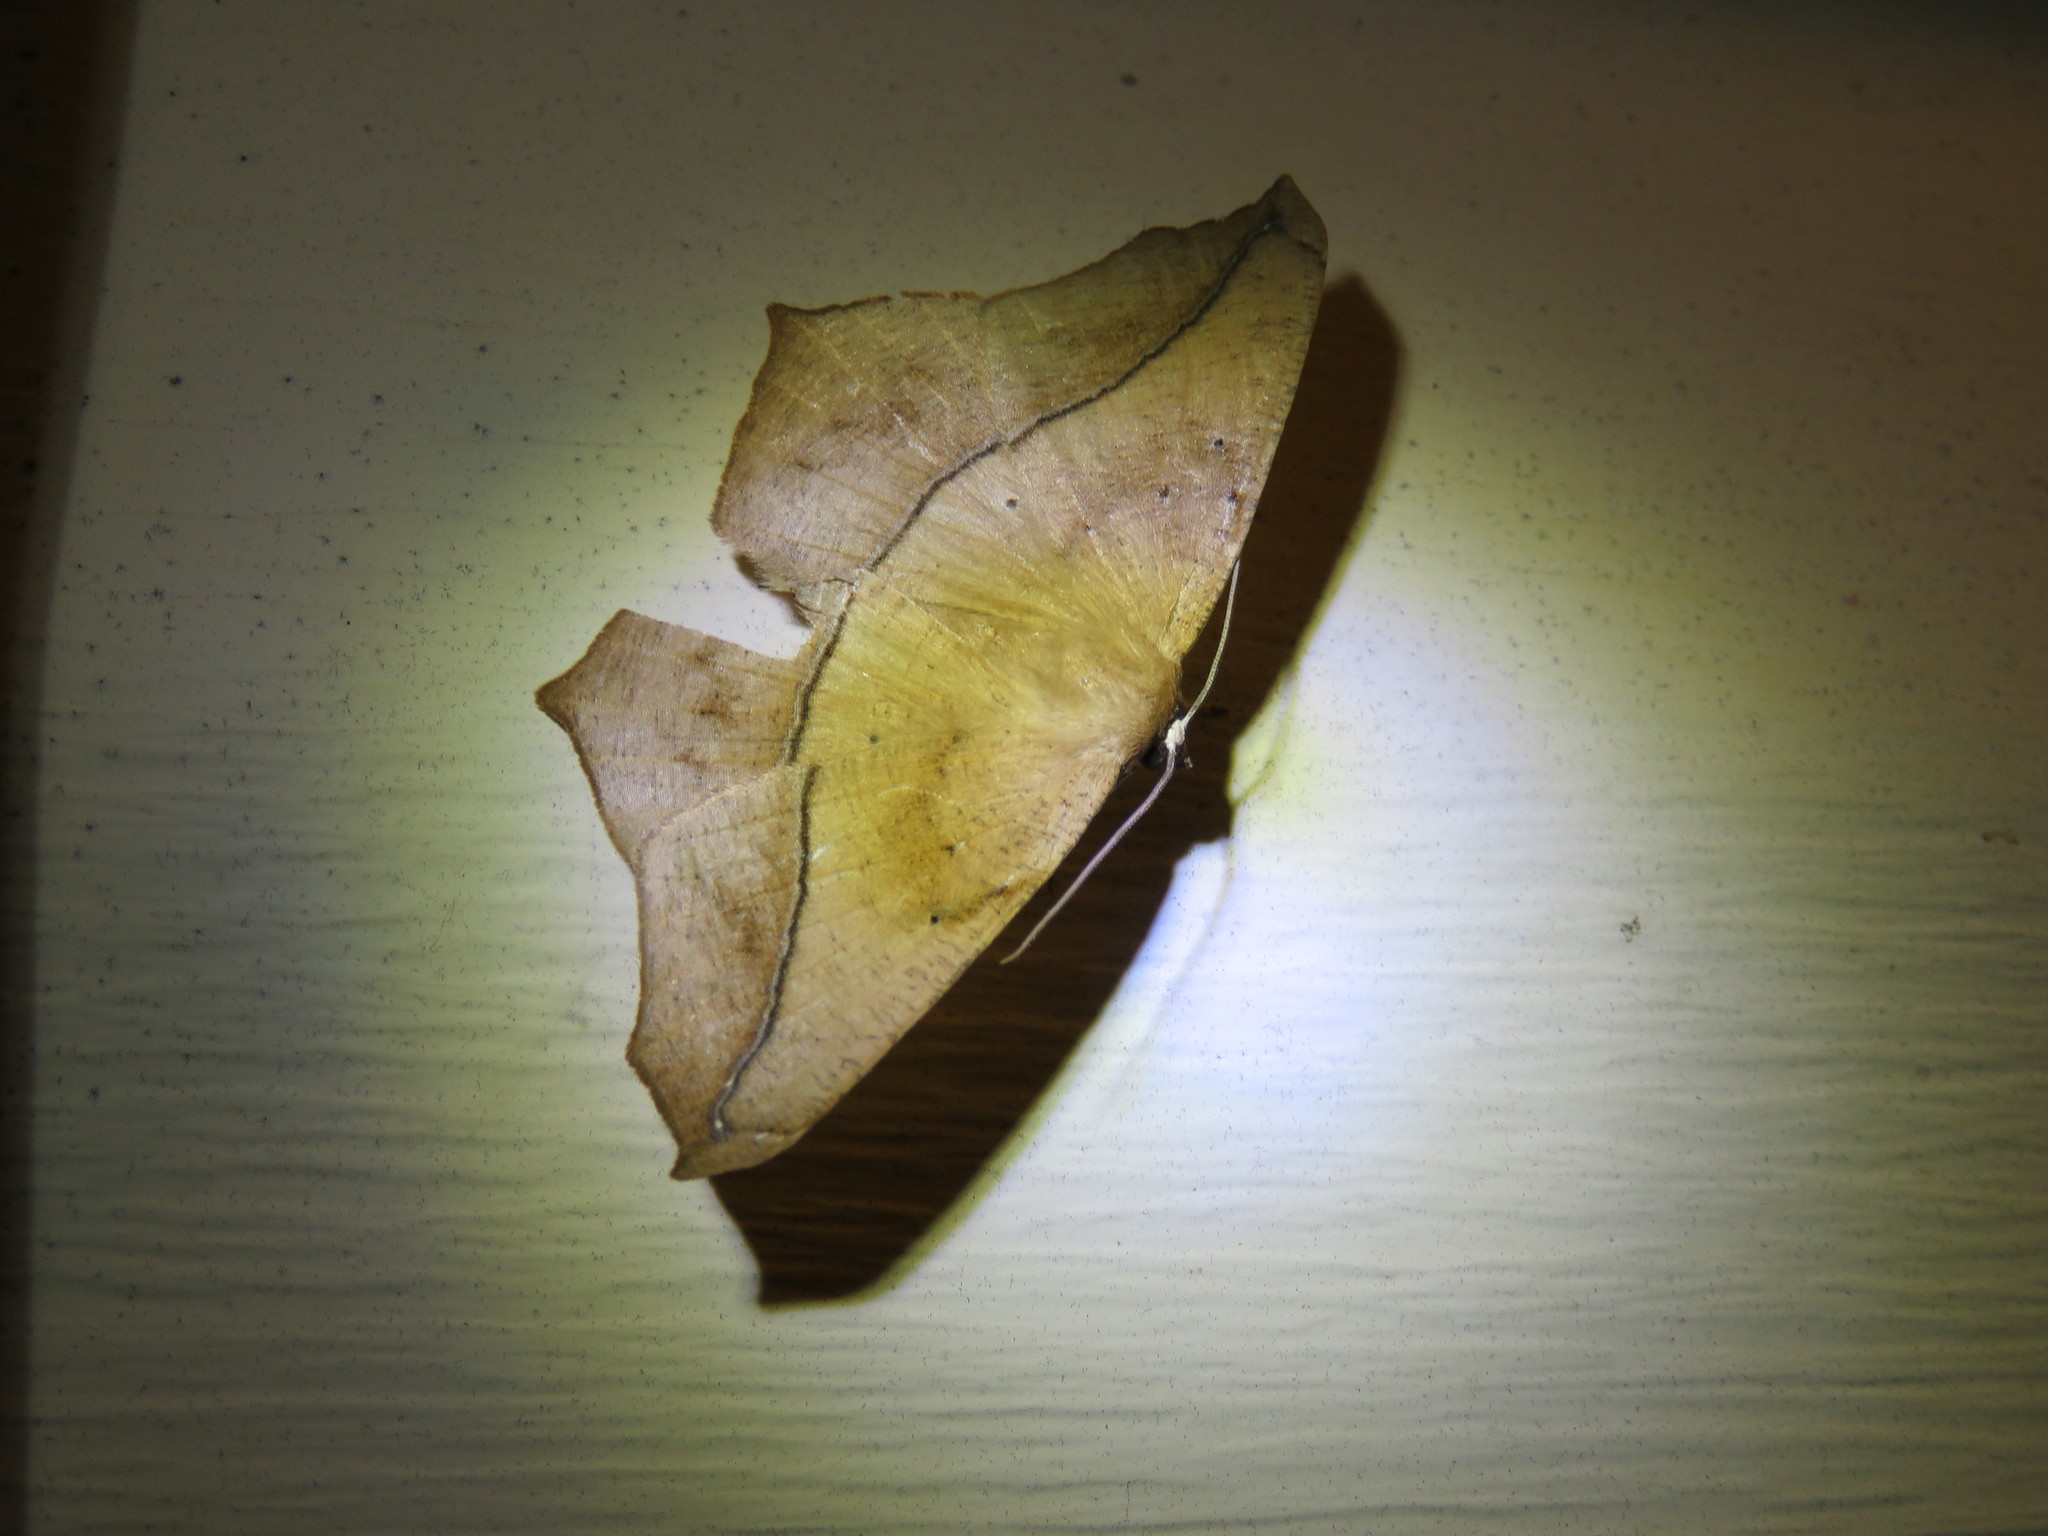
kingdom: Animalia
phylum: Arthropoda
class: Insecta
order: Lepidoptera
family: Geometridae
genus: Prochoerodes
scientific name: Prochoerodes lineola
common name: Large maple spanworm
